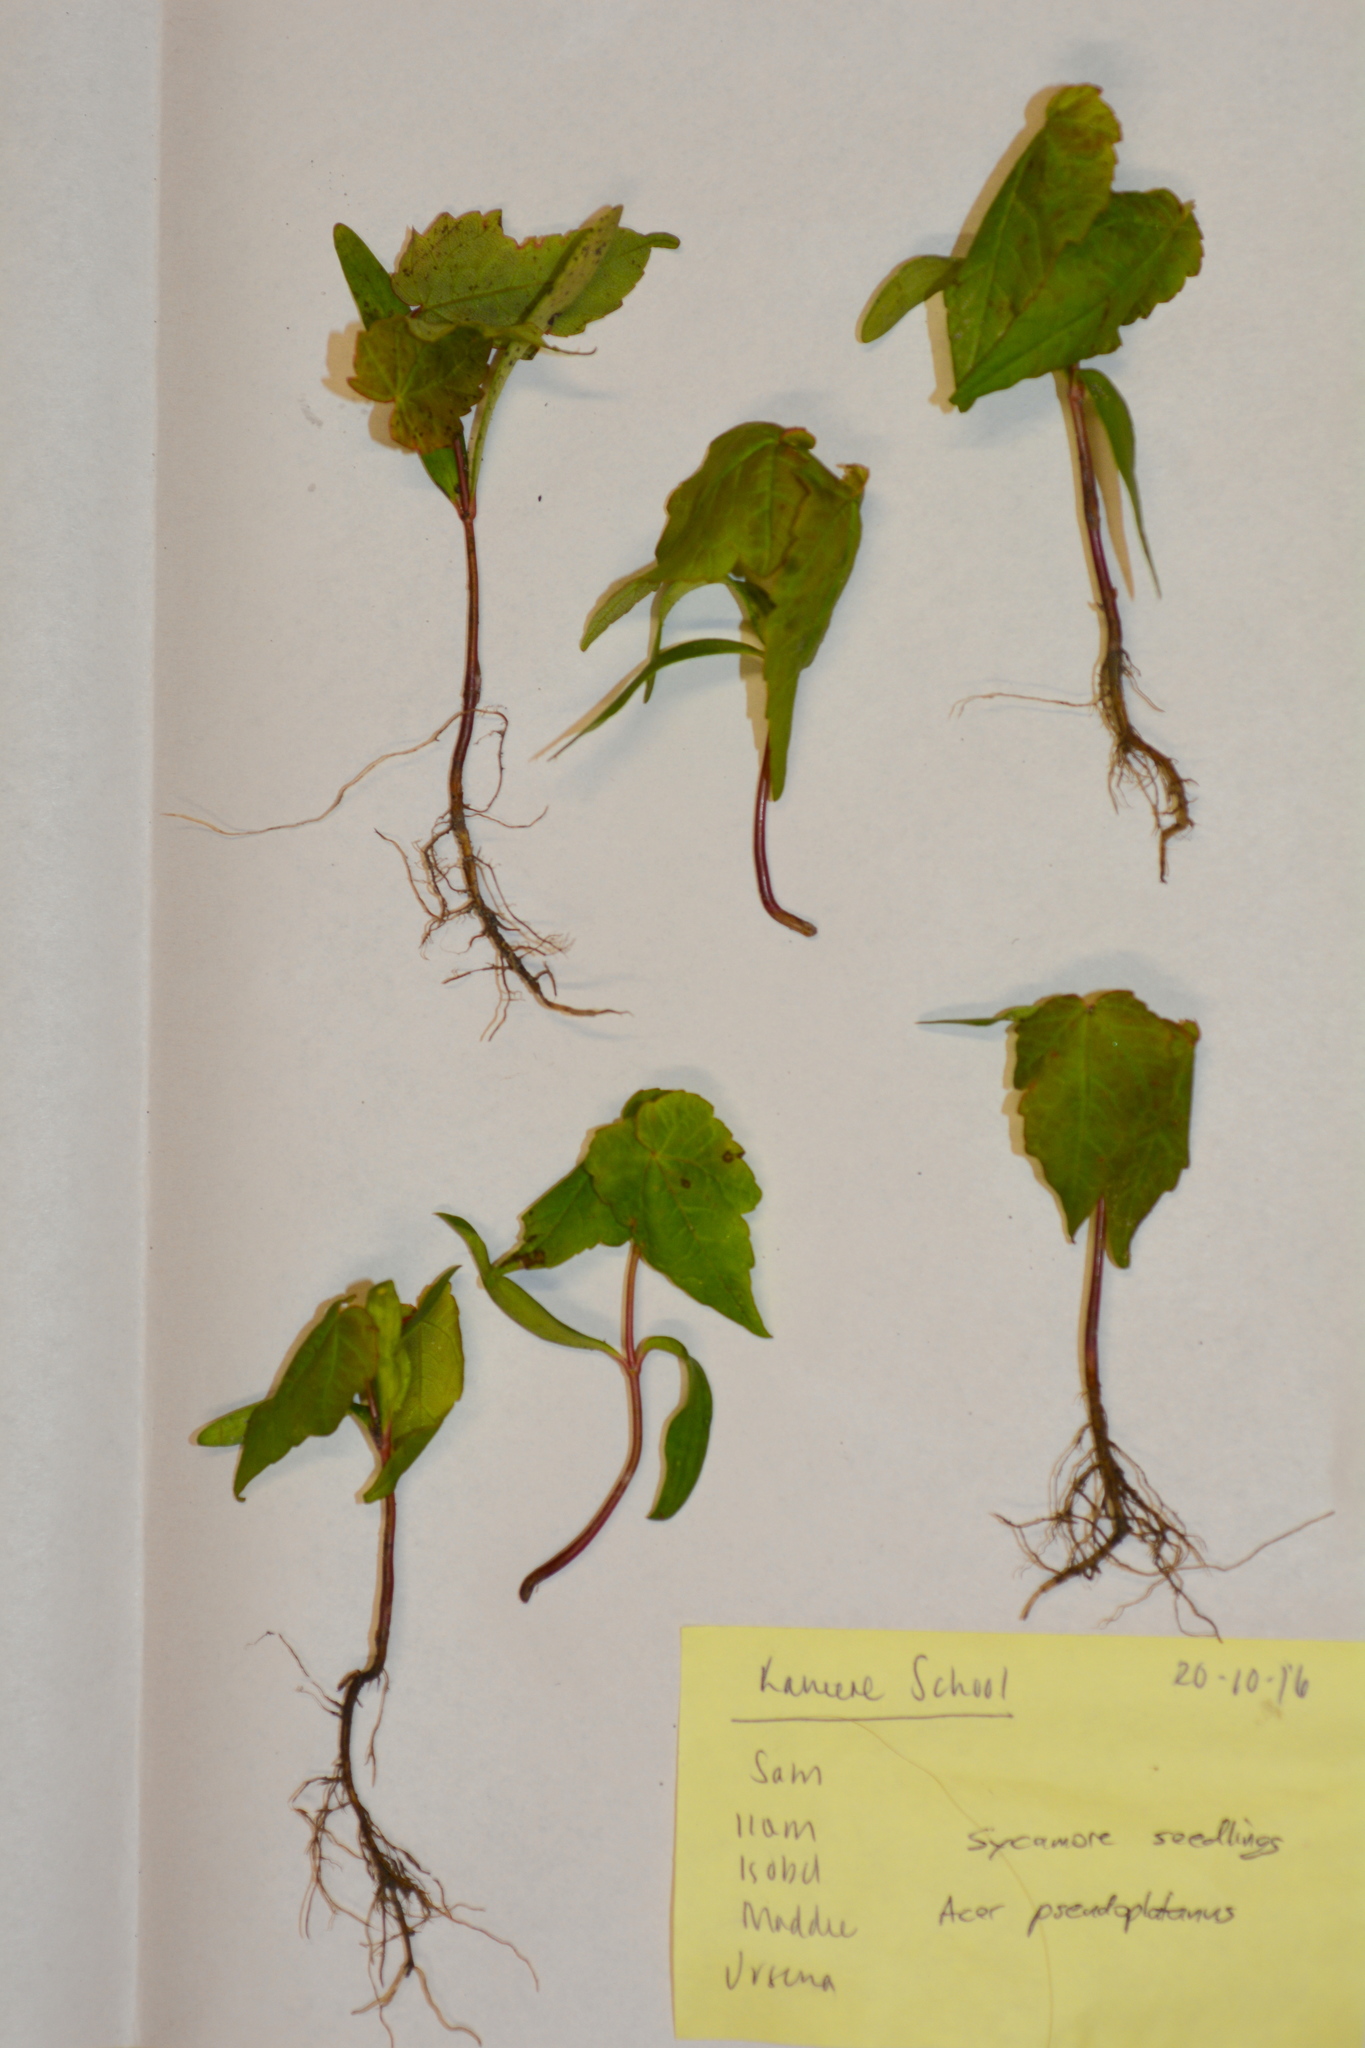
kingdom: Plantae
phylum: Tracheophyta
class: Magnoliopsida
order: Sapindales
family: Sapindaceae
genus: Acer
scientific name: Acer pseudoplatanus
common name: Sycamore
